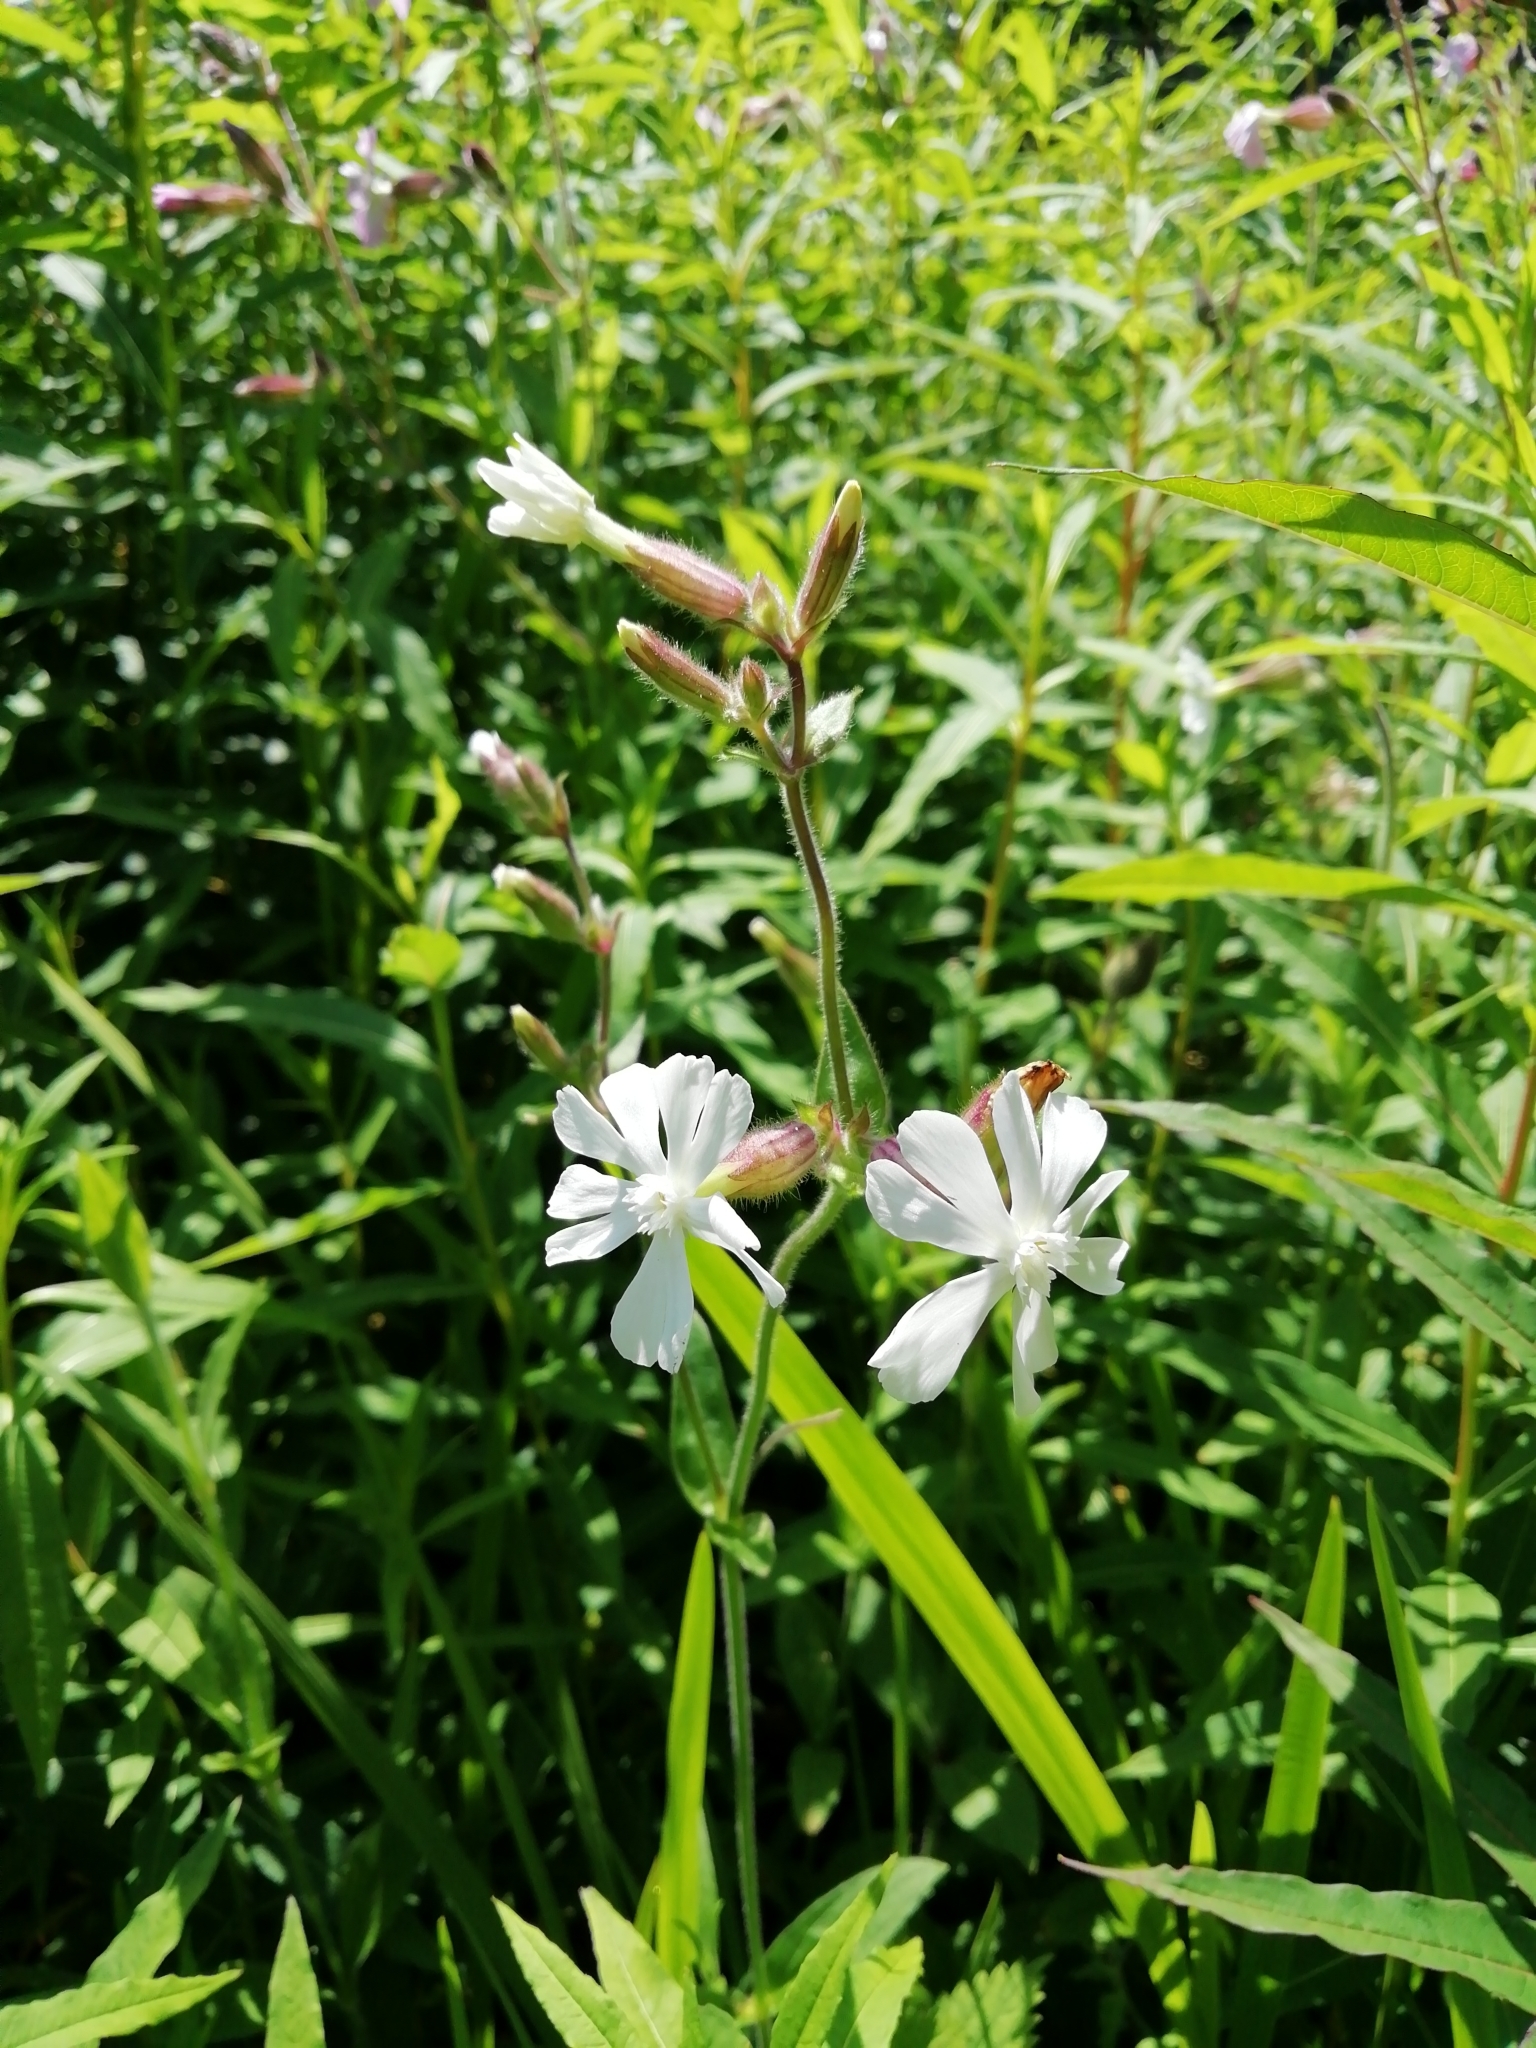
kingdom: Plantae
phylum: Tracheophyta
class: Magnoliopsida
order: Caryophyllales
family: Caryophyllaceae
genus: Silene
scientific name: Silene latifolia
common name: White campion
